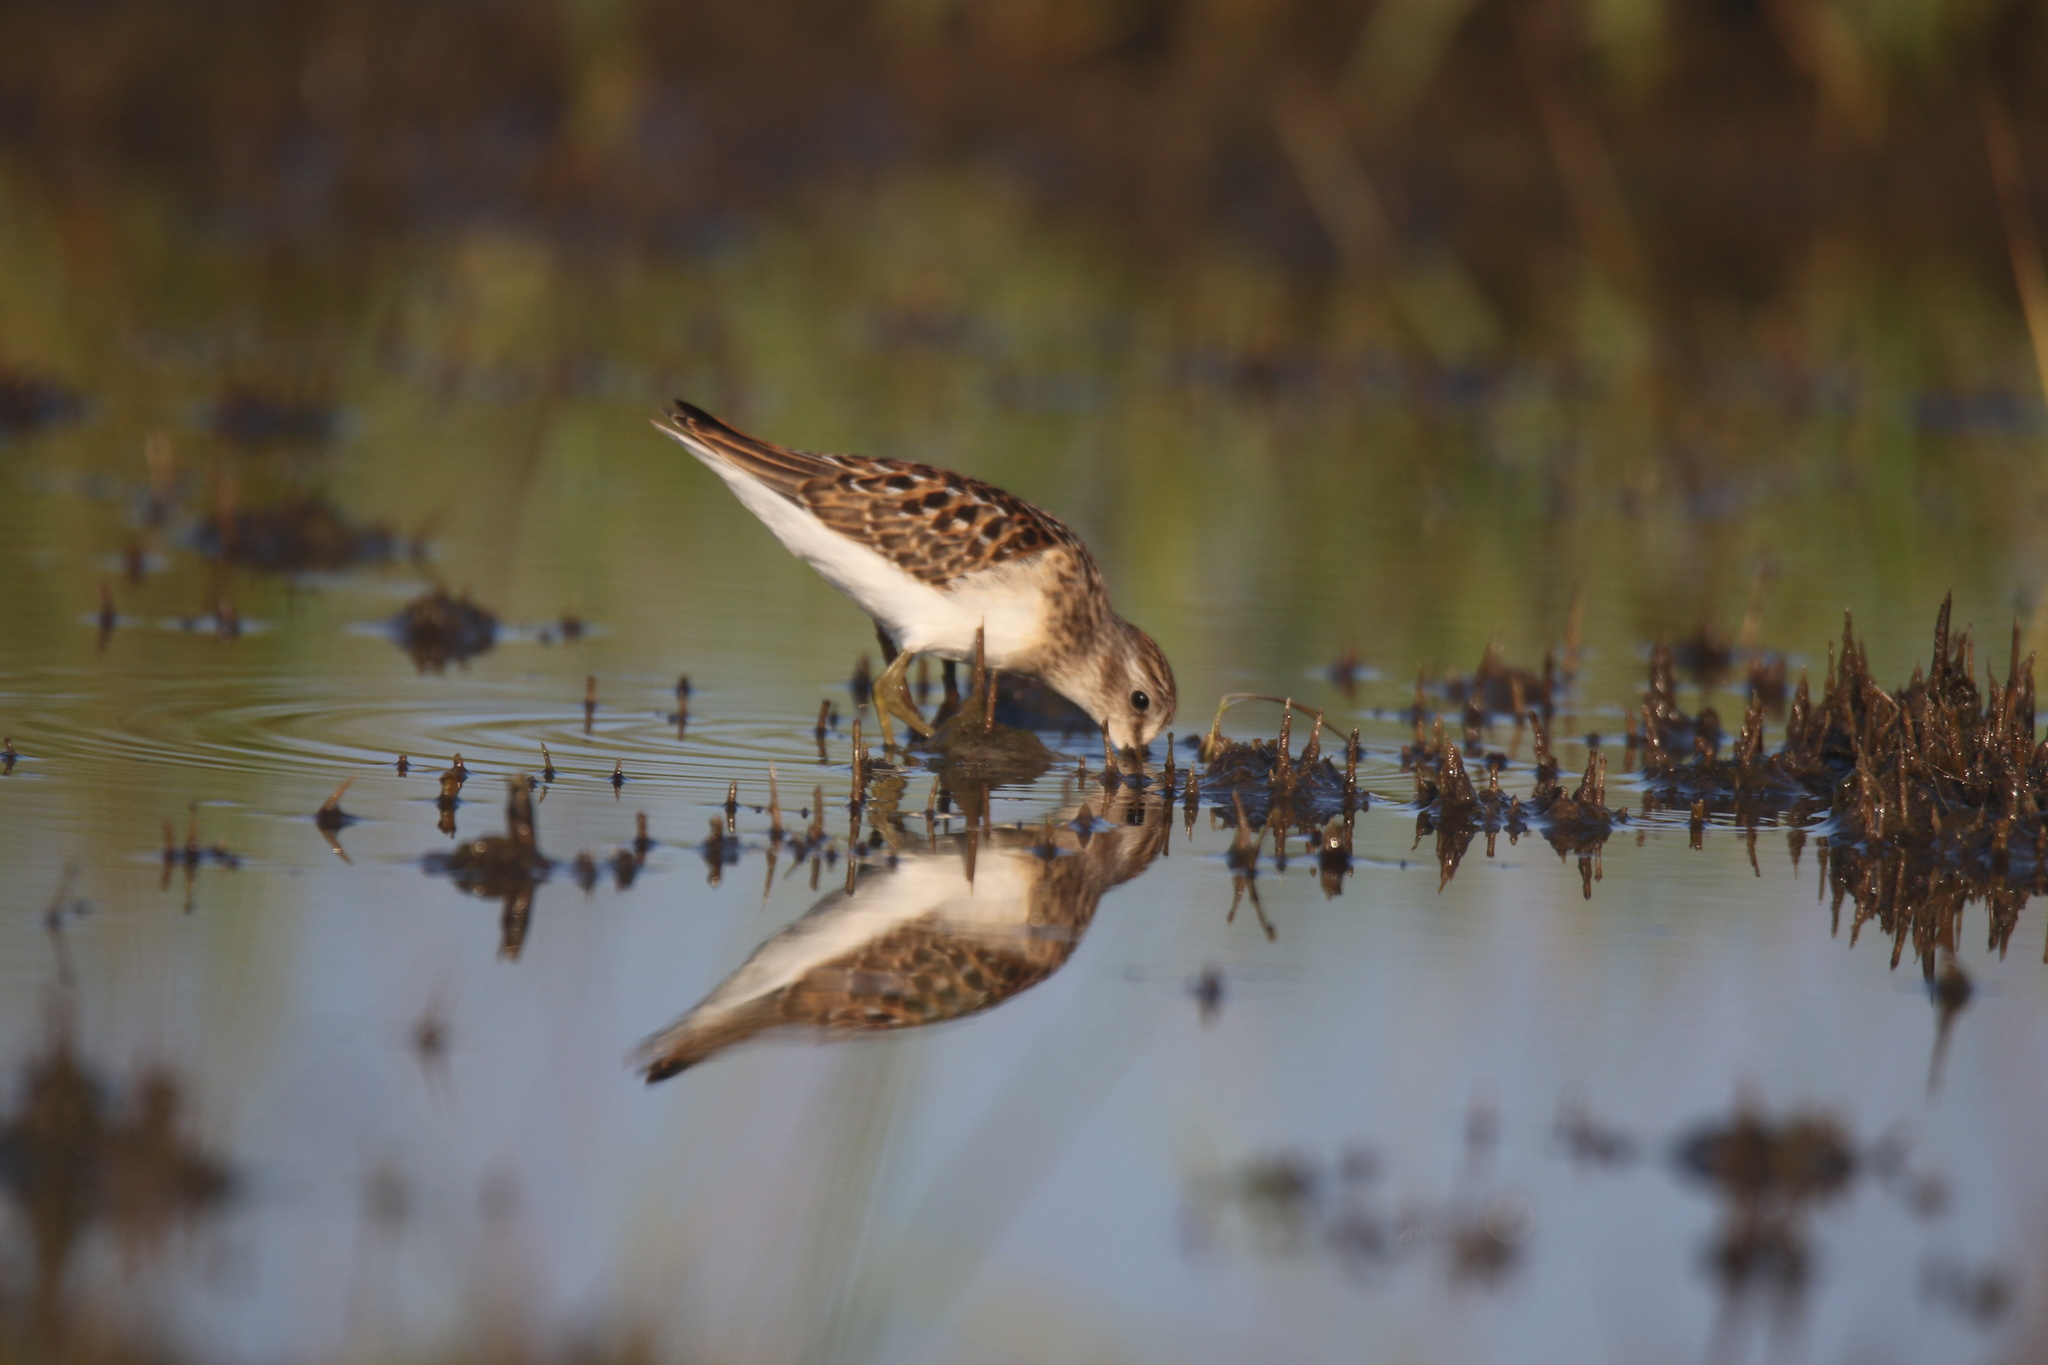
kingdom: Animalia
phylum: Chordata
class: Aves
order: Charadriiformes
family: Scolopacidae
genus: Calidris
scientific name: Calidris minutilla
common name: Least sandpiper
